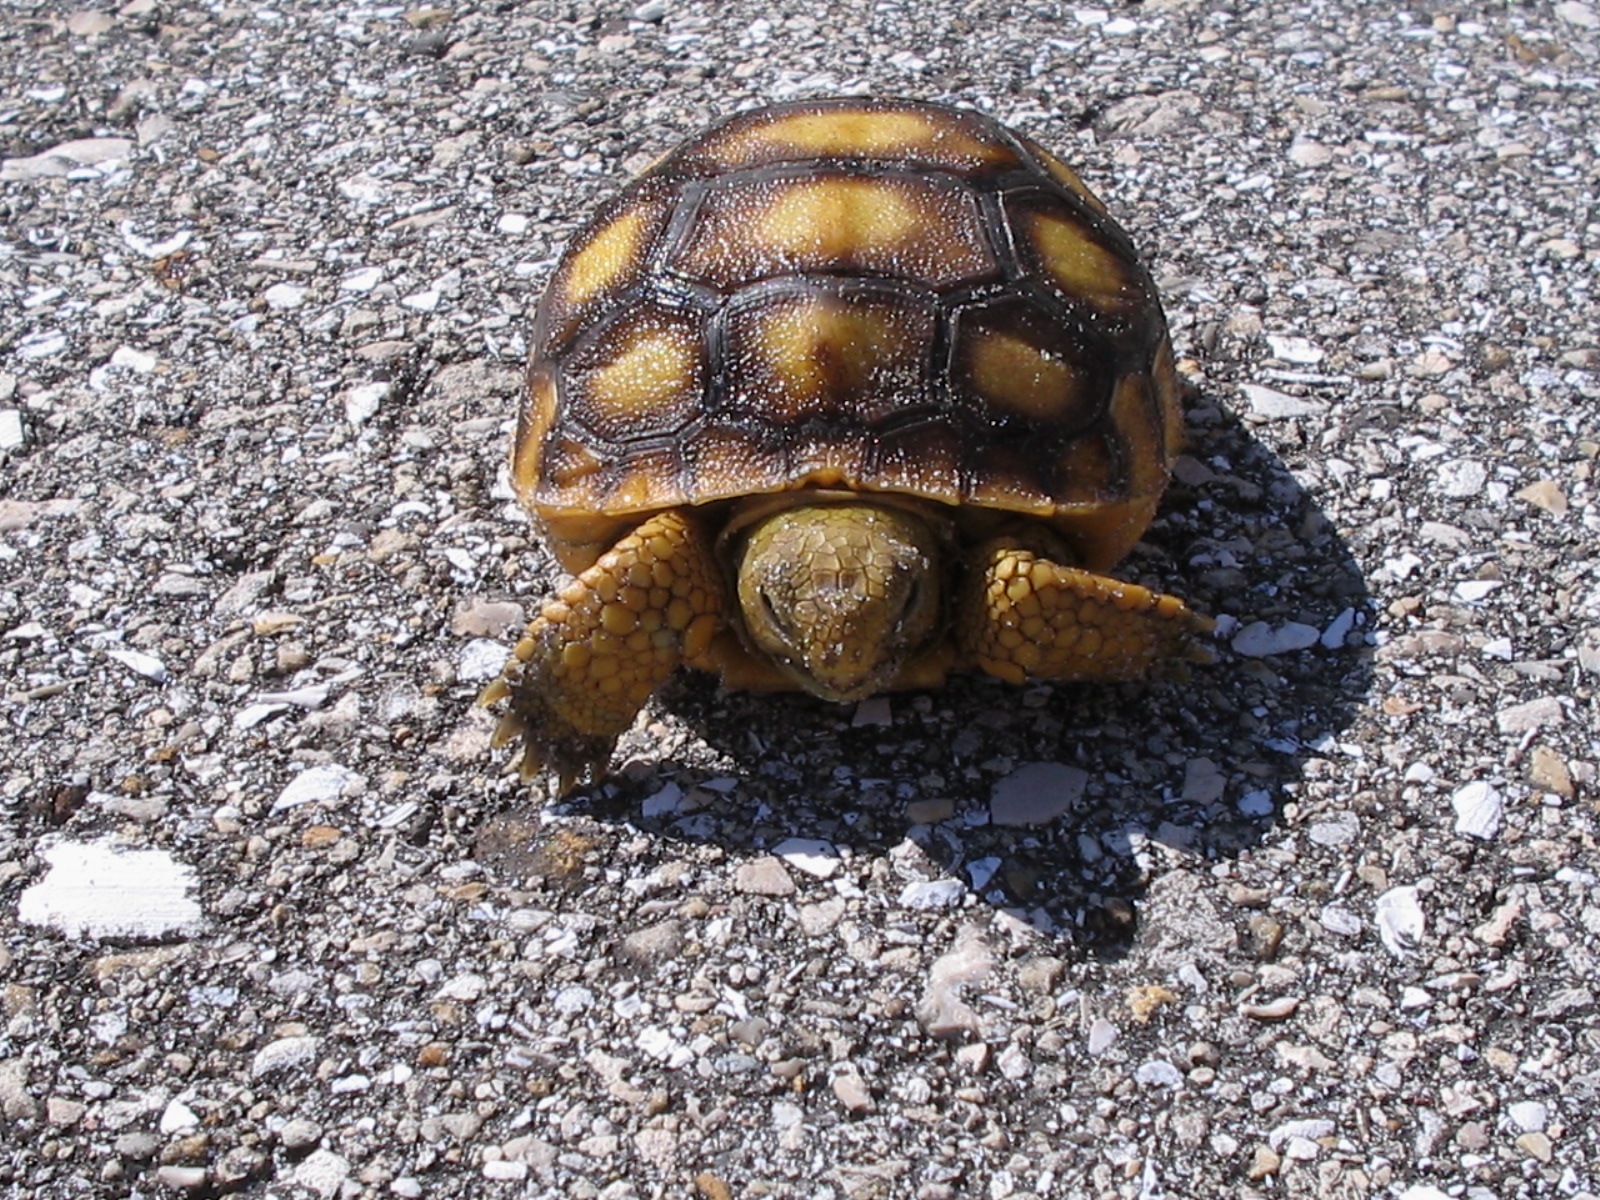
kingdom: Animalia
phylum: Chordata
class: Testudines
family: Testudinidae
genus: Gopherus
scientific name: Gopherus polyphemus
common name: Florida gopher tortoise
